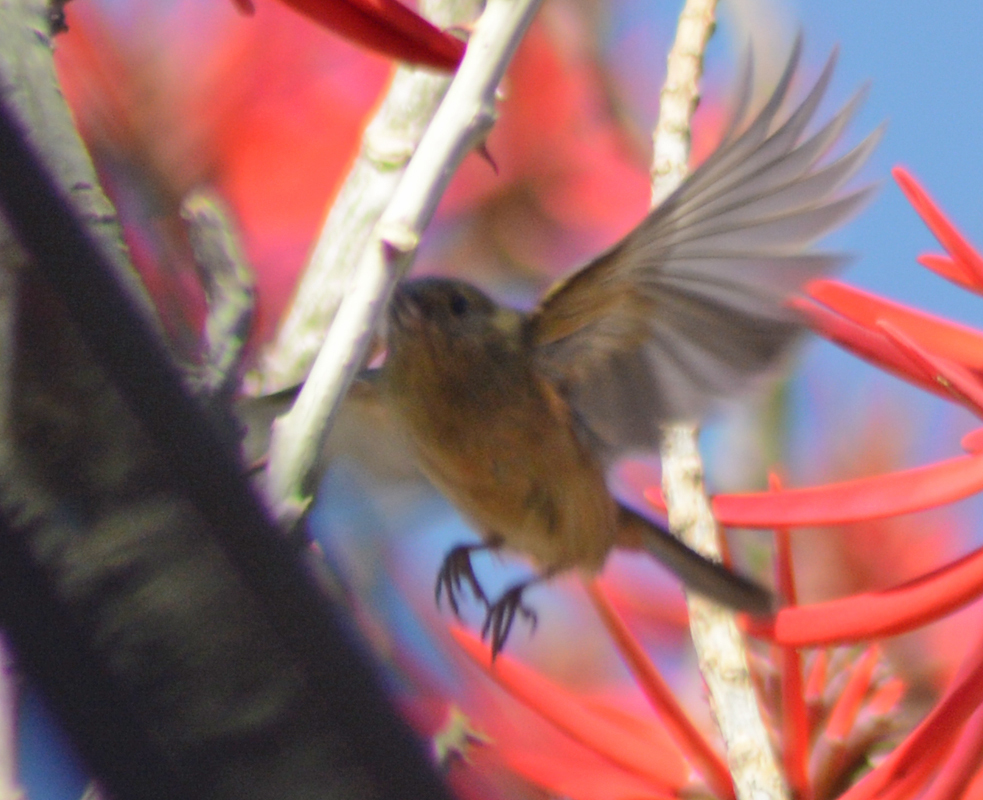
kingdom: Animalia
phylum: Chordata
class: Aves
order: Passeriformes
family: Thraupidae
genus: Diglossa
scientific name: Diglossa baritula
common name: Cinnamon-bellied flowerpiercer
